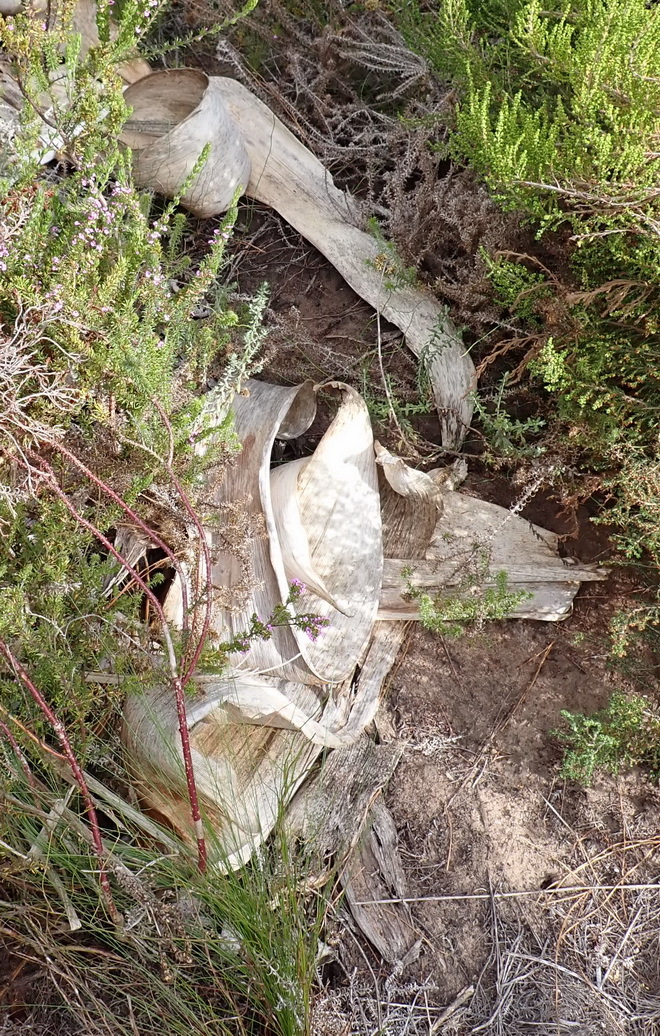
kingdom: Plantae
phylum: Tracheophyta
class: Liliopsida
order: Asparagales
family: Amaryllidaceae
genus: Brunsvigia
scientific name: Brunsvigia orientalis
